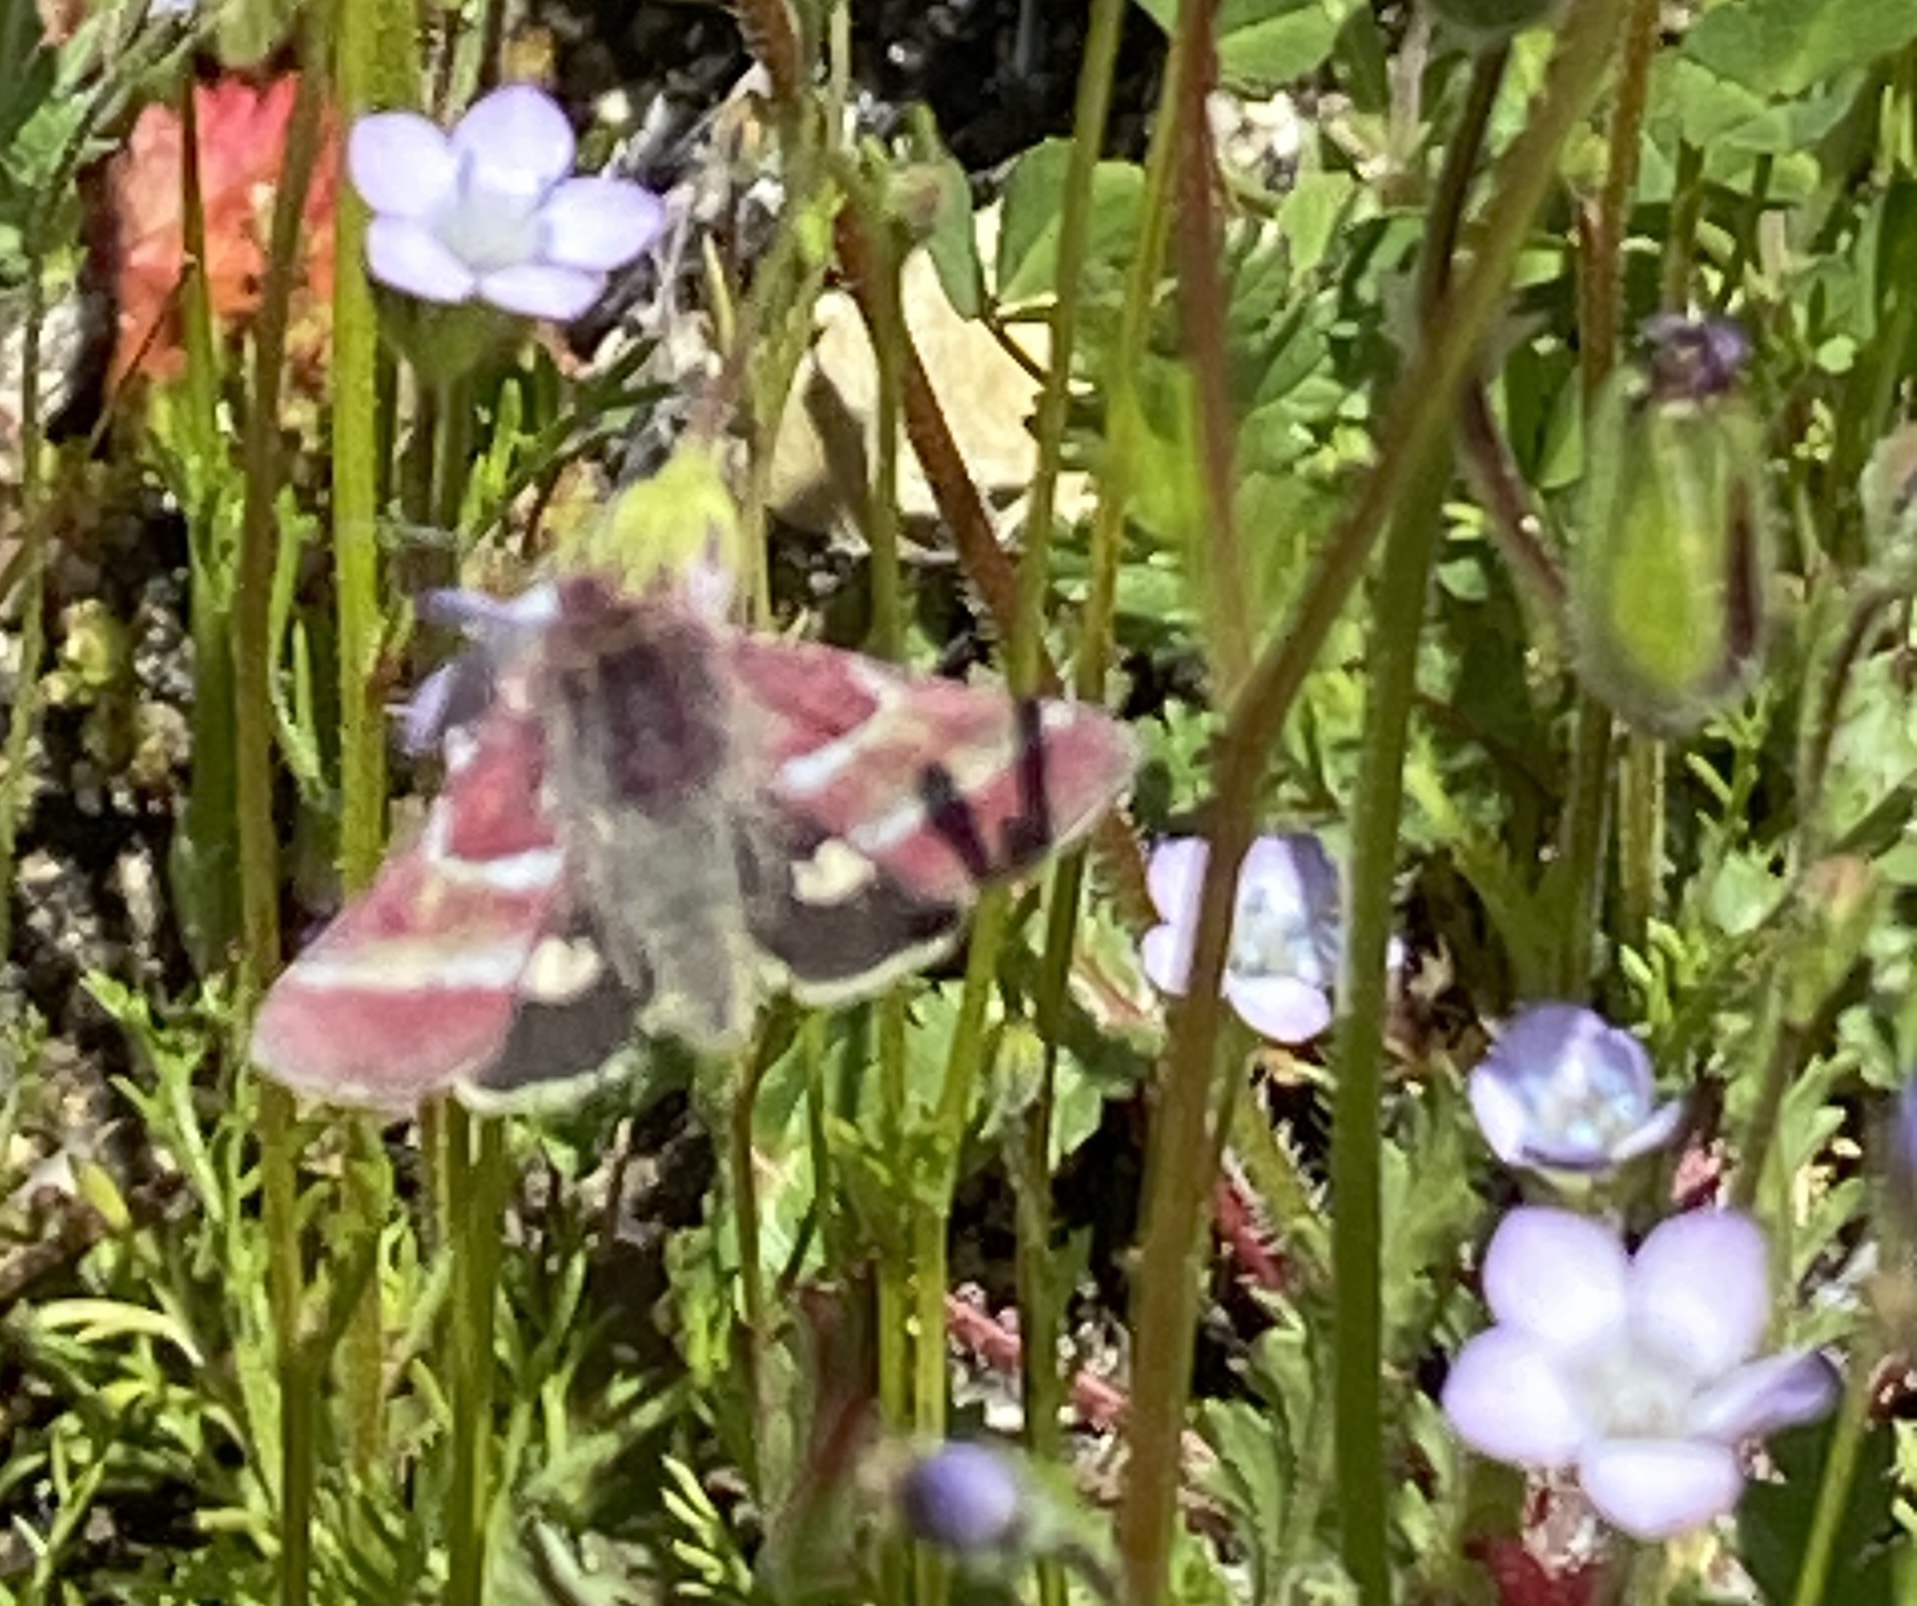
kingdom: Animalia
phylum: Arthropoda
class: Insecta
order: Lepidoptera
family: Noctuidae
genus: Schinia
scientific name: Schinia pulchripennis
